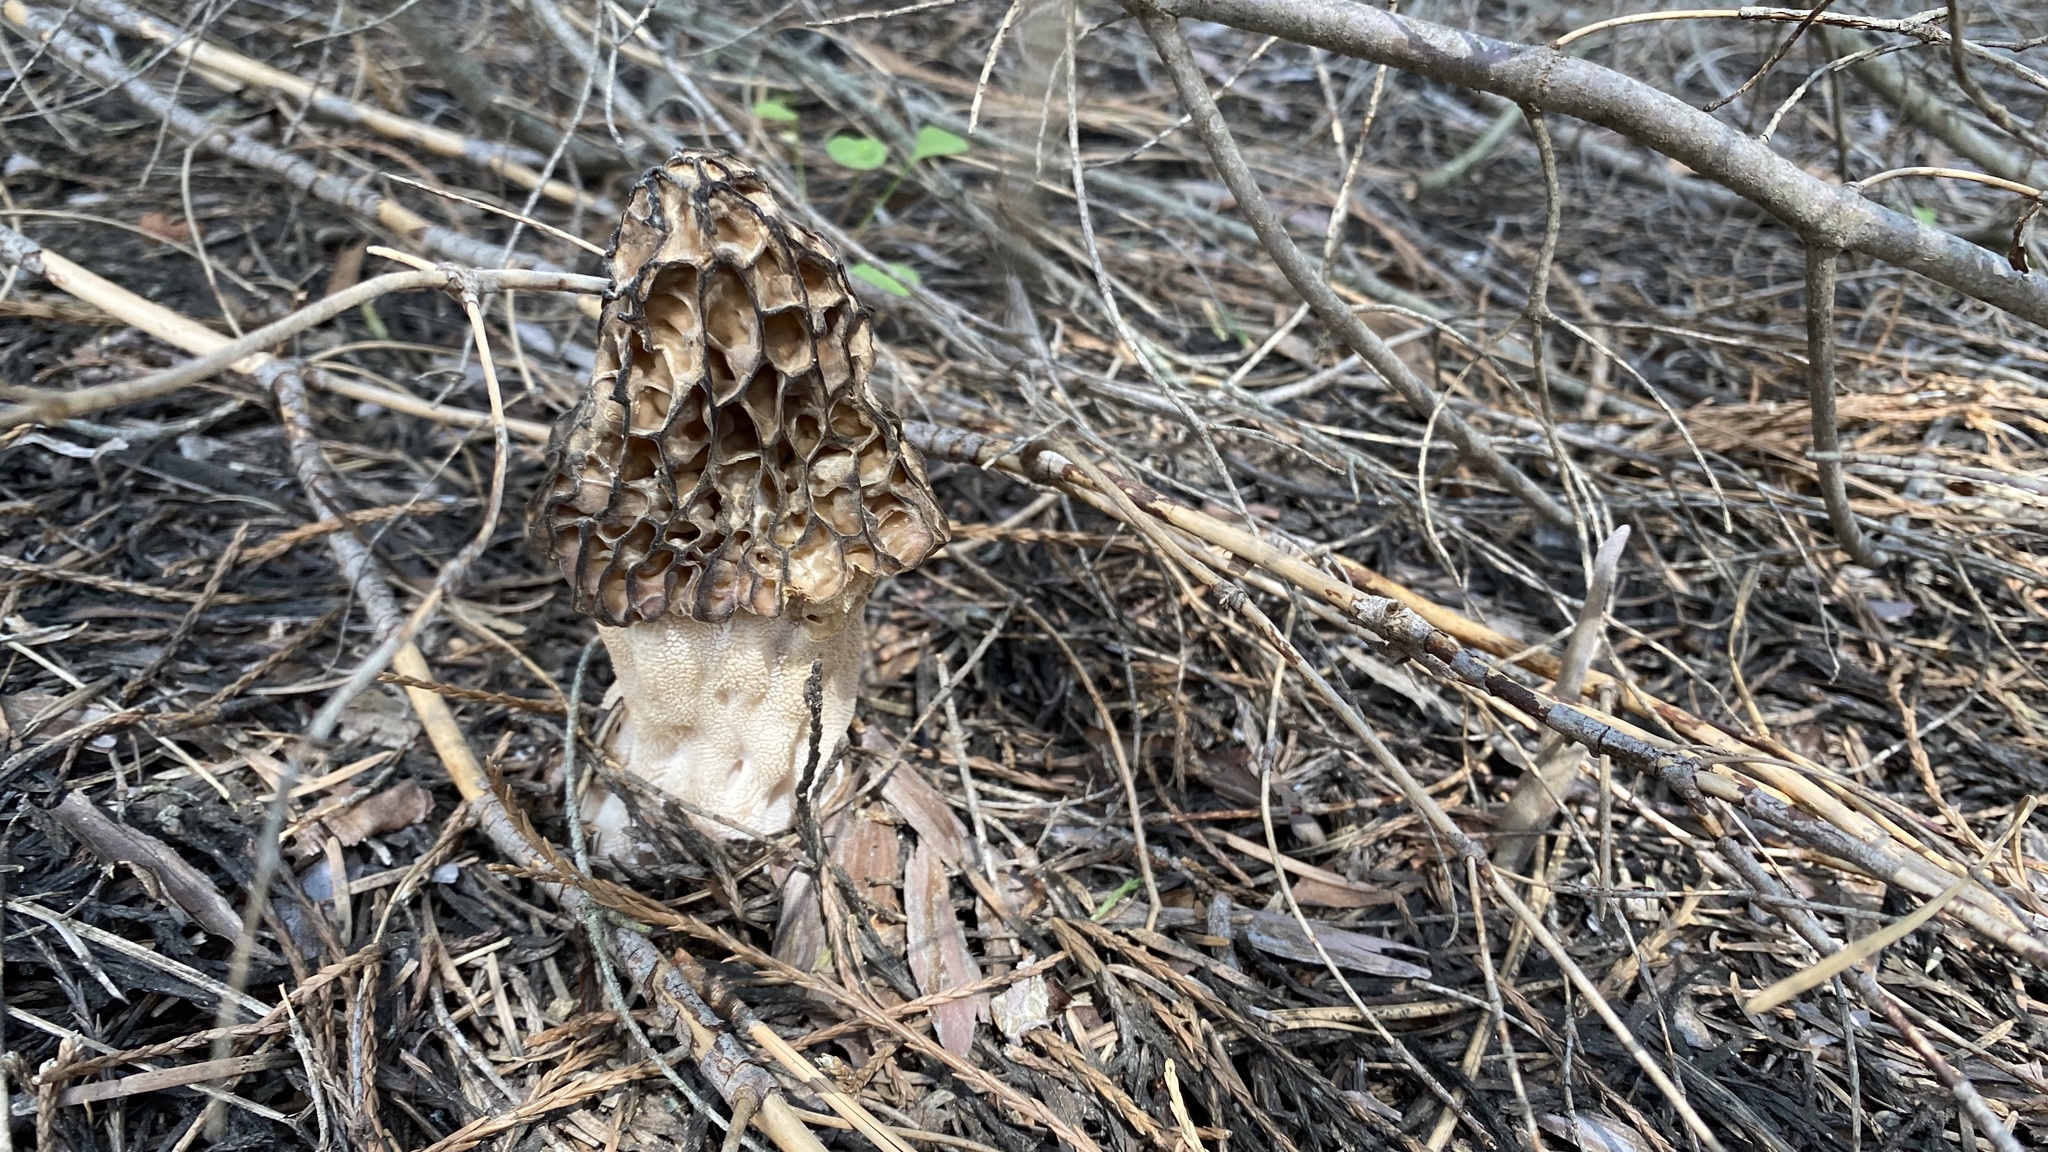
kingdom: Fungi
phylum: Ascomycota
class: Pezizomycetes
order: Pezizales
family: Morchellaceae
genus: Morchella
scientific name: Morchella snyderi
